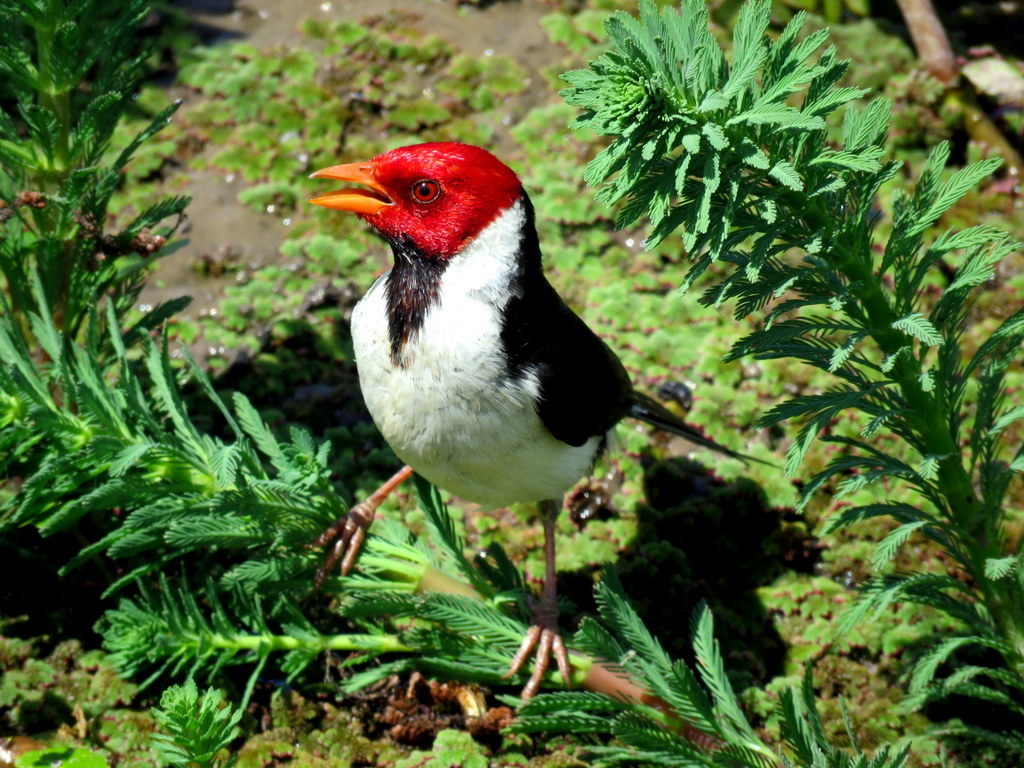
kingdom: Animalia
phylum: Chordata
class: Aves
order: Passeriformes
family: Thraupidae
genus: Paroaria
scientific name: Paroaria capitata
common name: Yellow-billed cardinal
